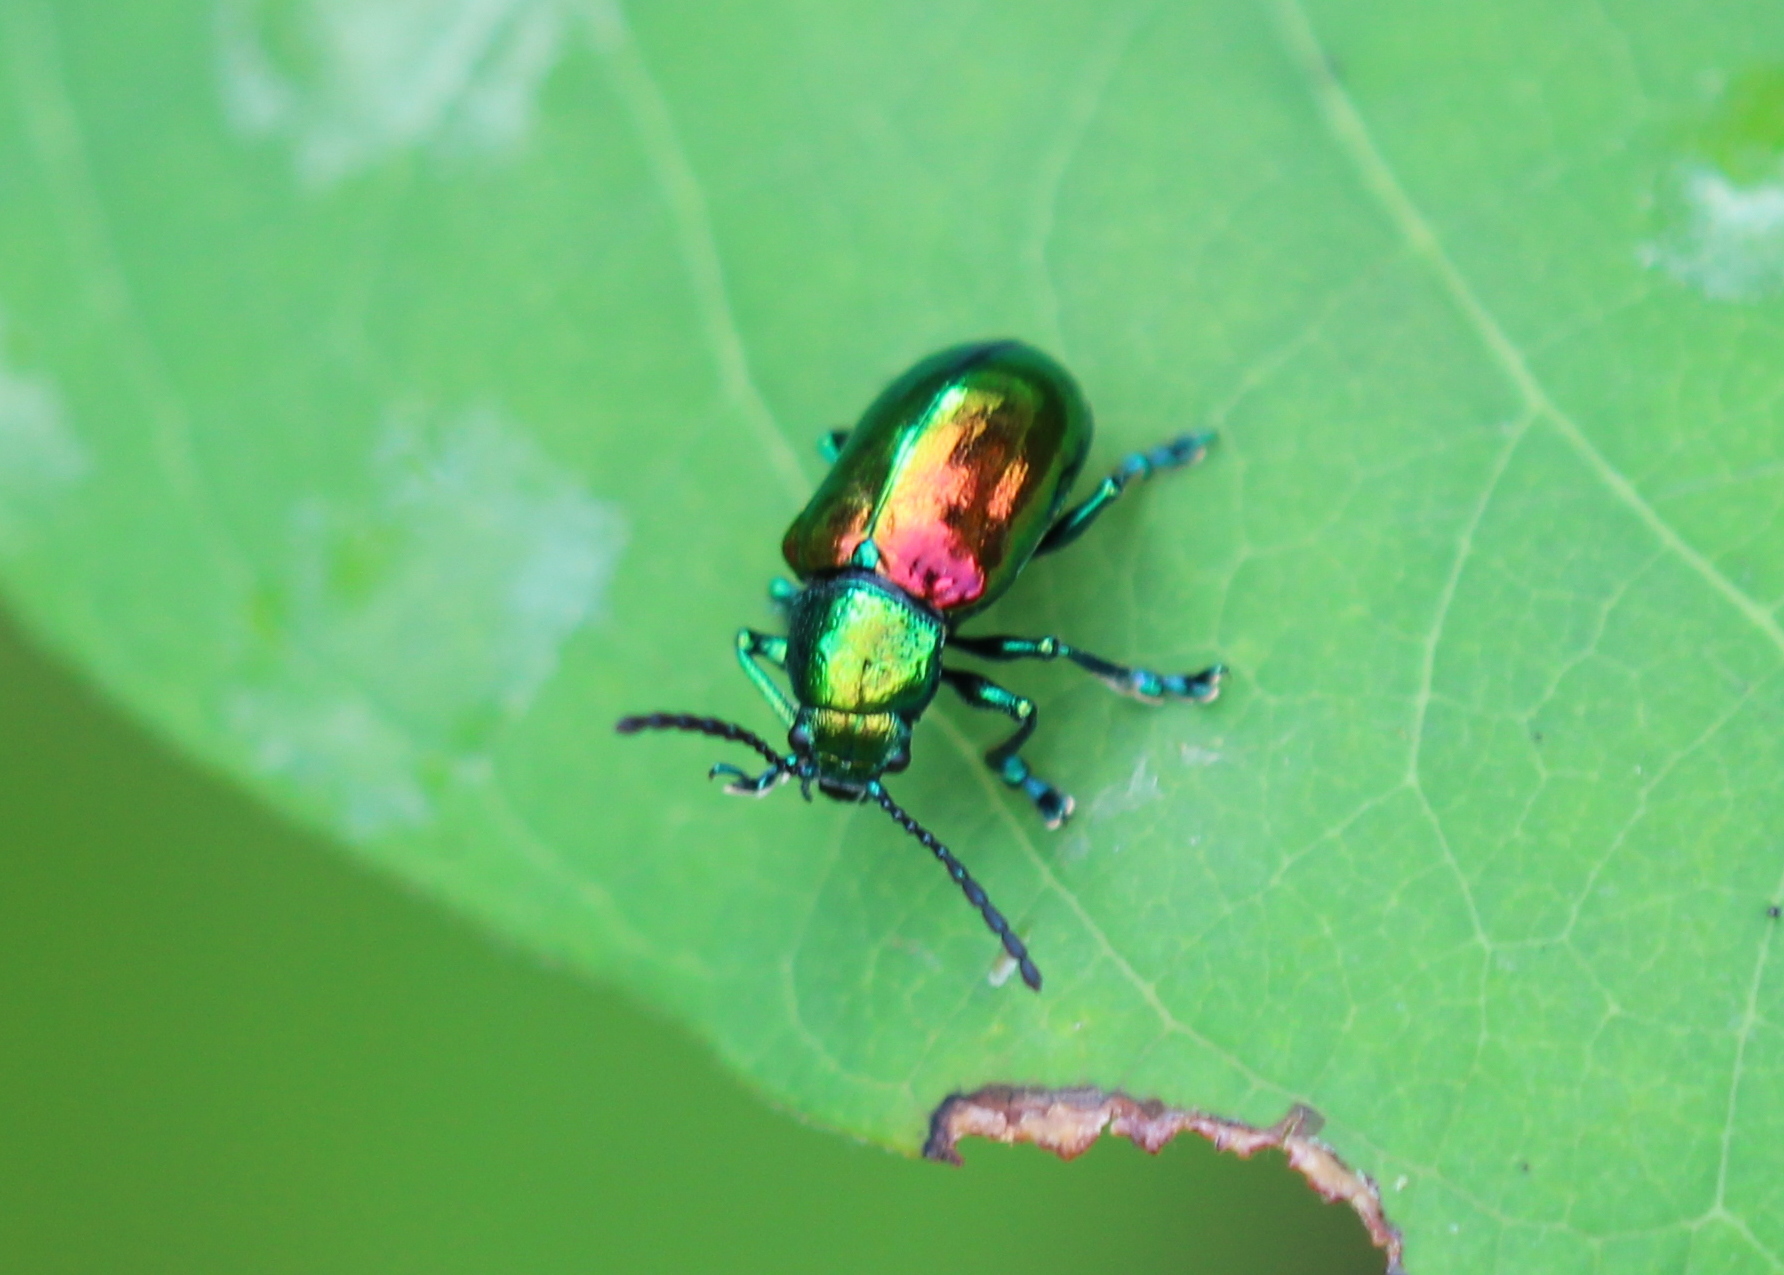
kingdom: Animalia
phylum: Arthropoda
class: Insecta
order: Coleoptera
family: Chrysomelidae
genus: Chrysochus
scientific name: Chrysochus auratus
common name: Dogbane leaf beetle
